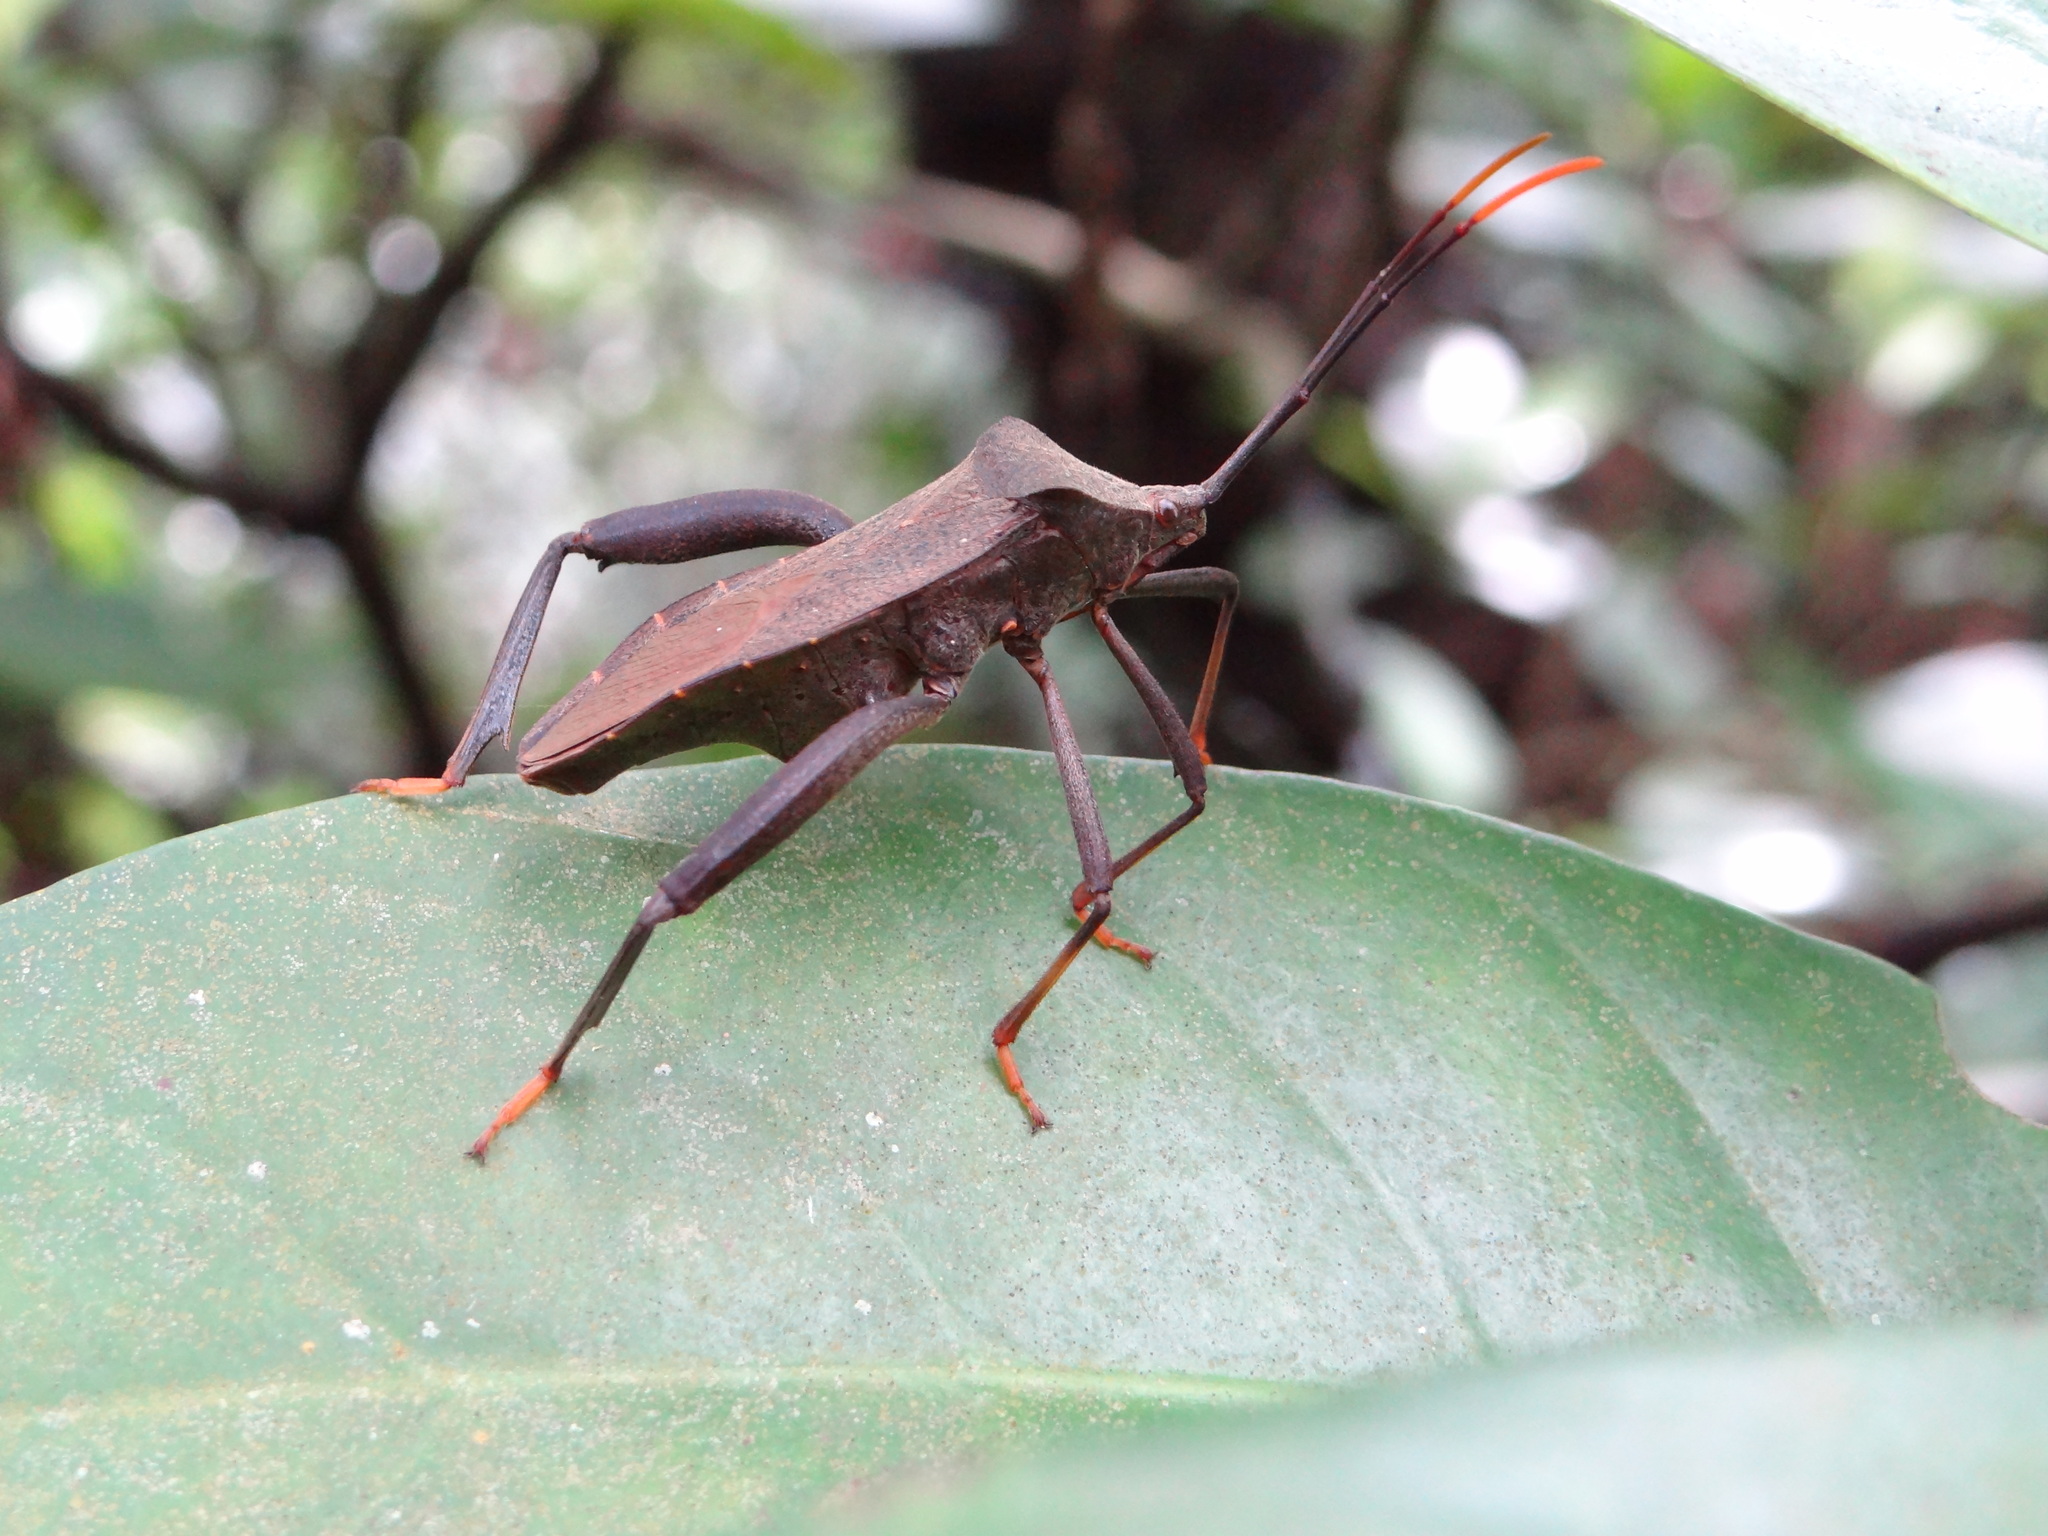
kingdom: Animalia
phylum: Arthropoda
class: Insecta
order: Hemiptera
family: Coreidae
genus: Mictis
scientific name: Mictis fuscipes
